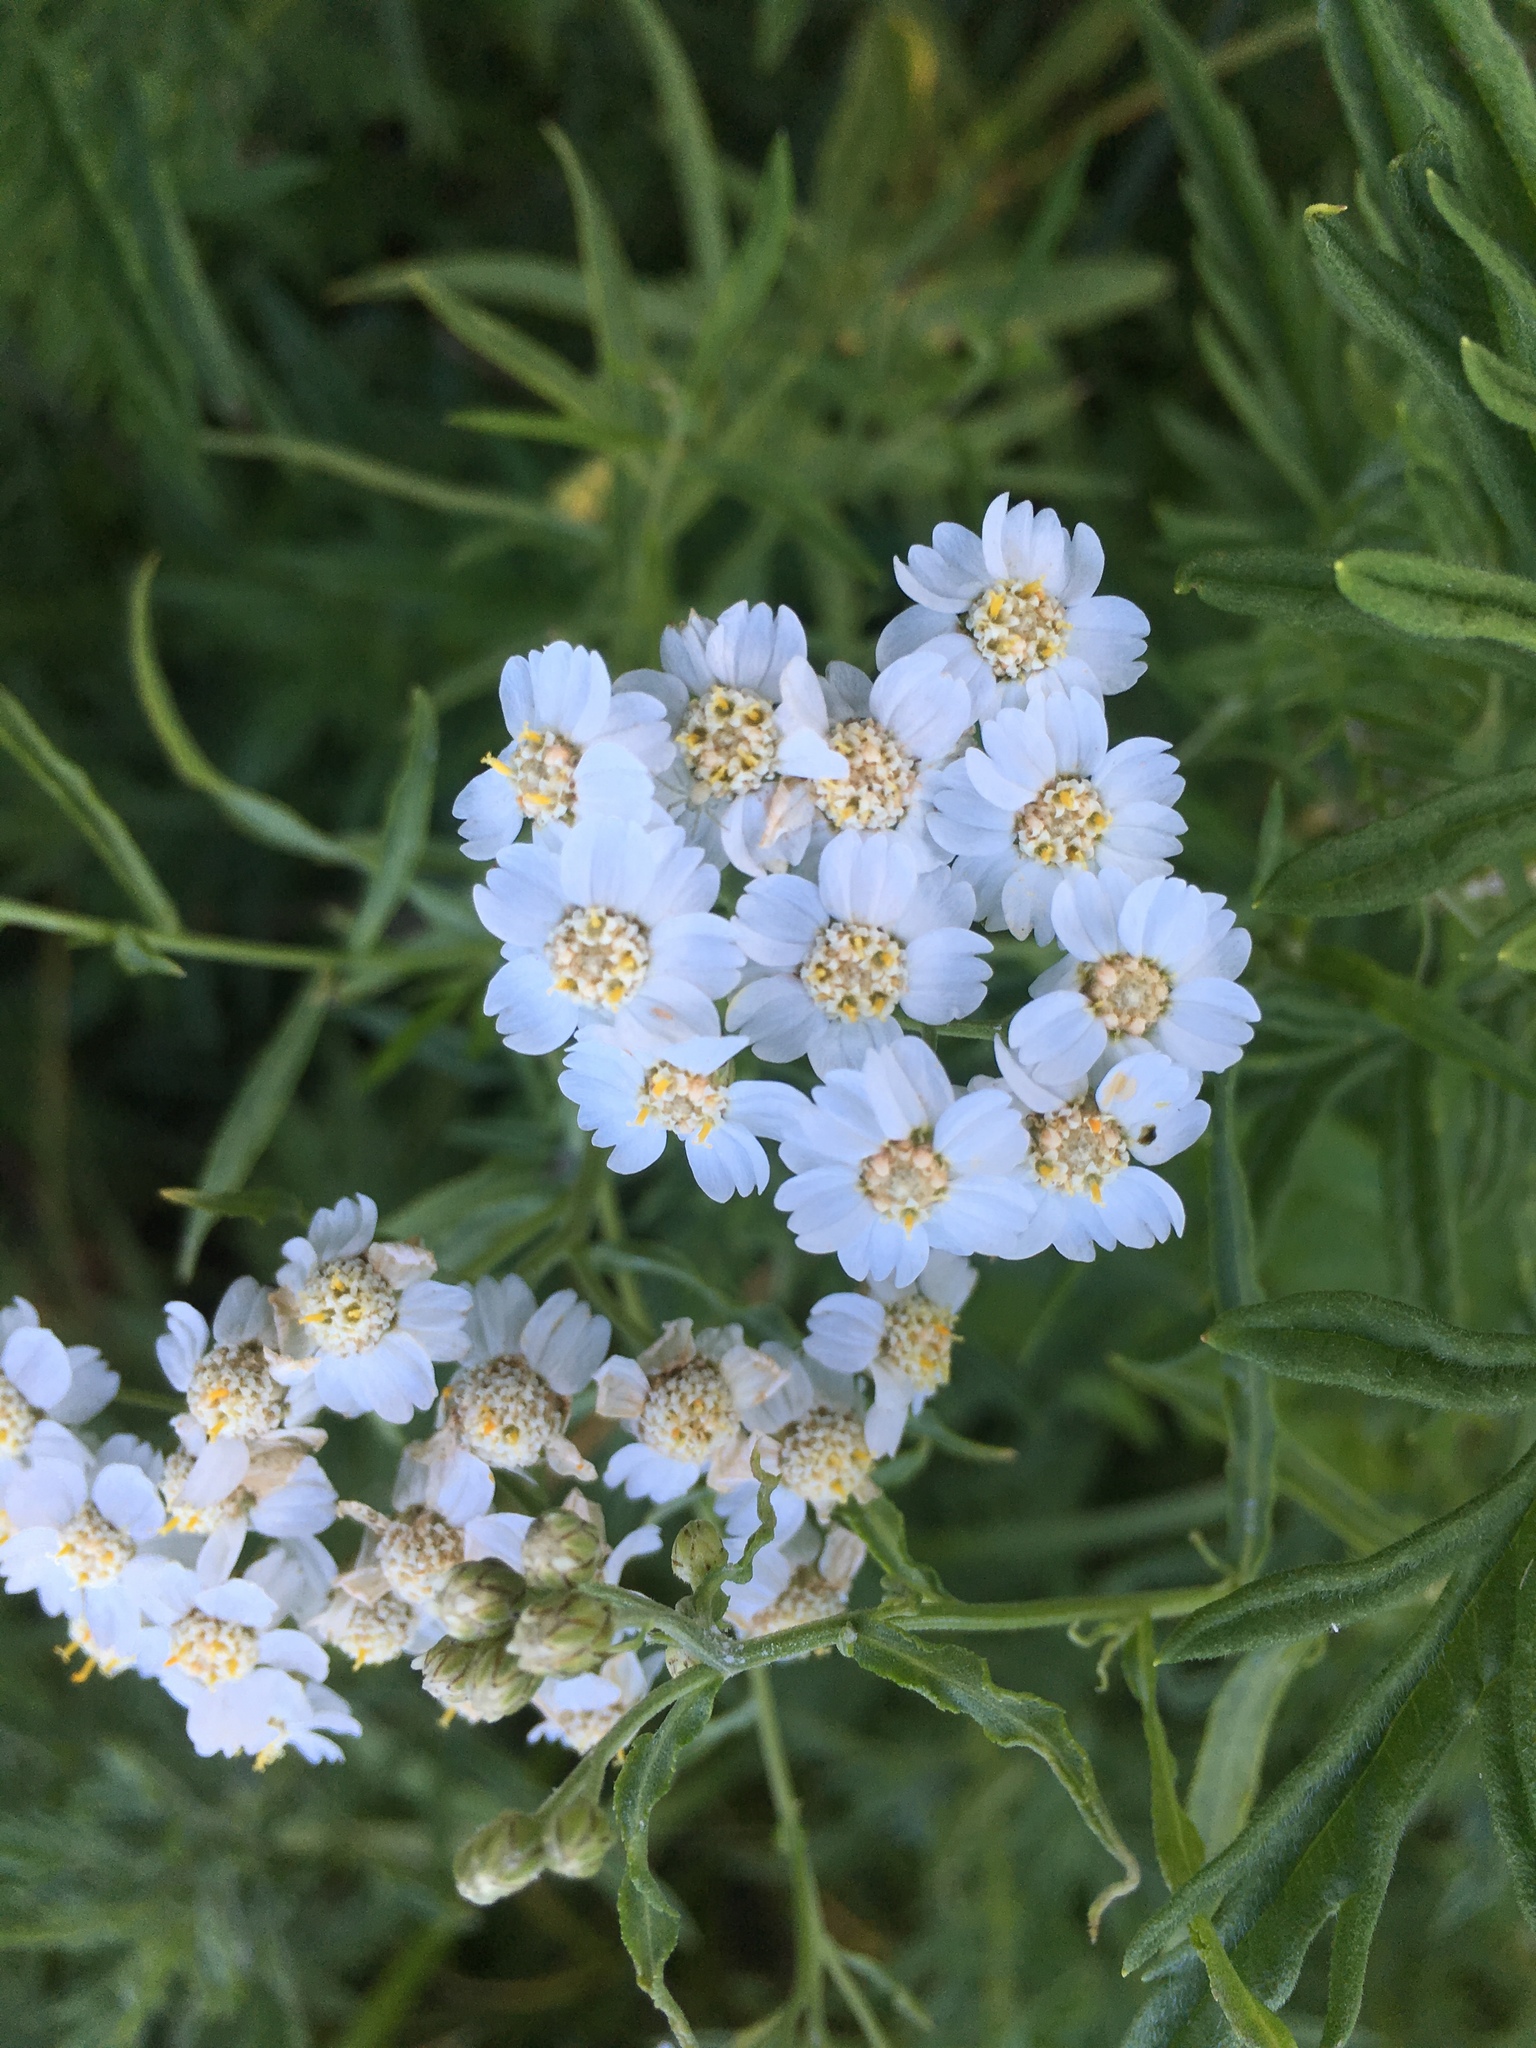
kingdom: Plantae
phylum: Tracheophyta
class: Magnoliopsida
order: Asterales
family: Asteraceae
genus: Achillea
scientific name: Achillea salicifolia
